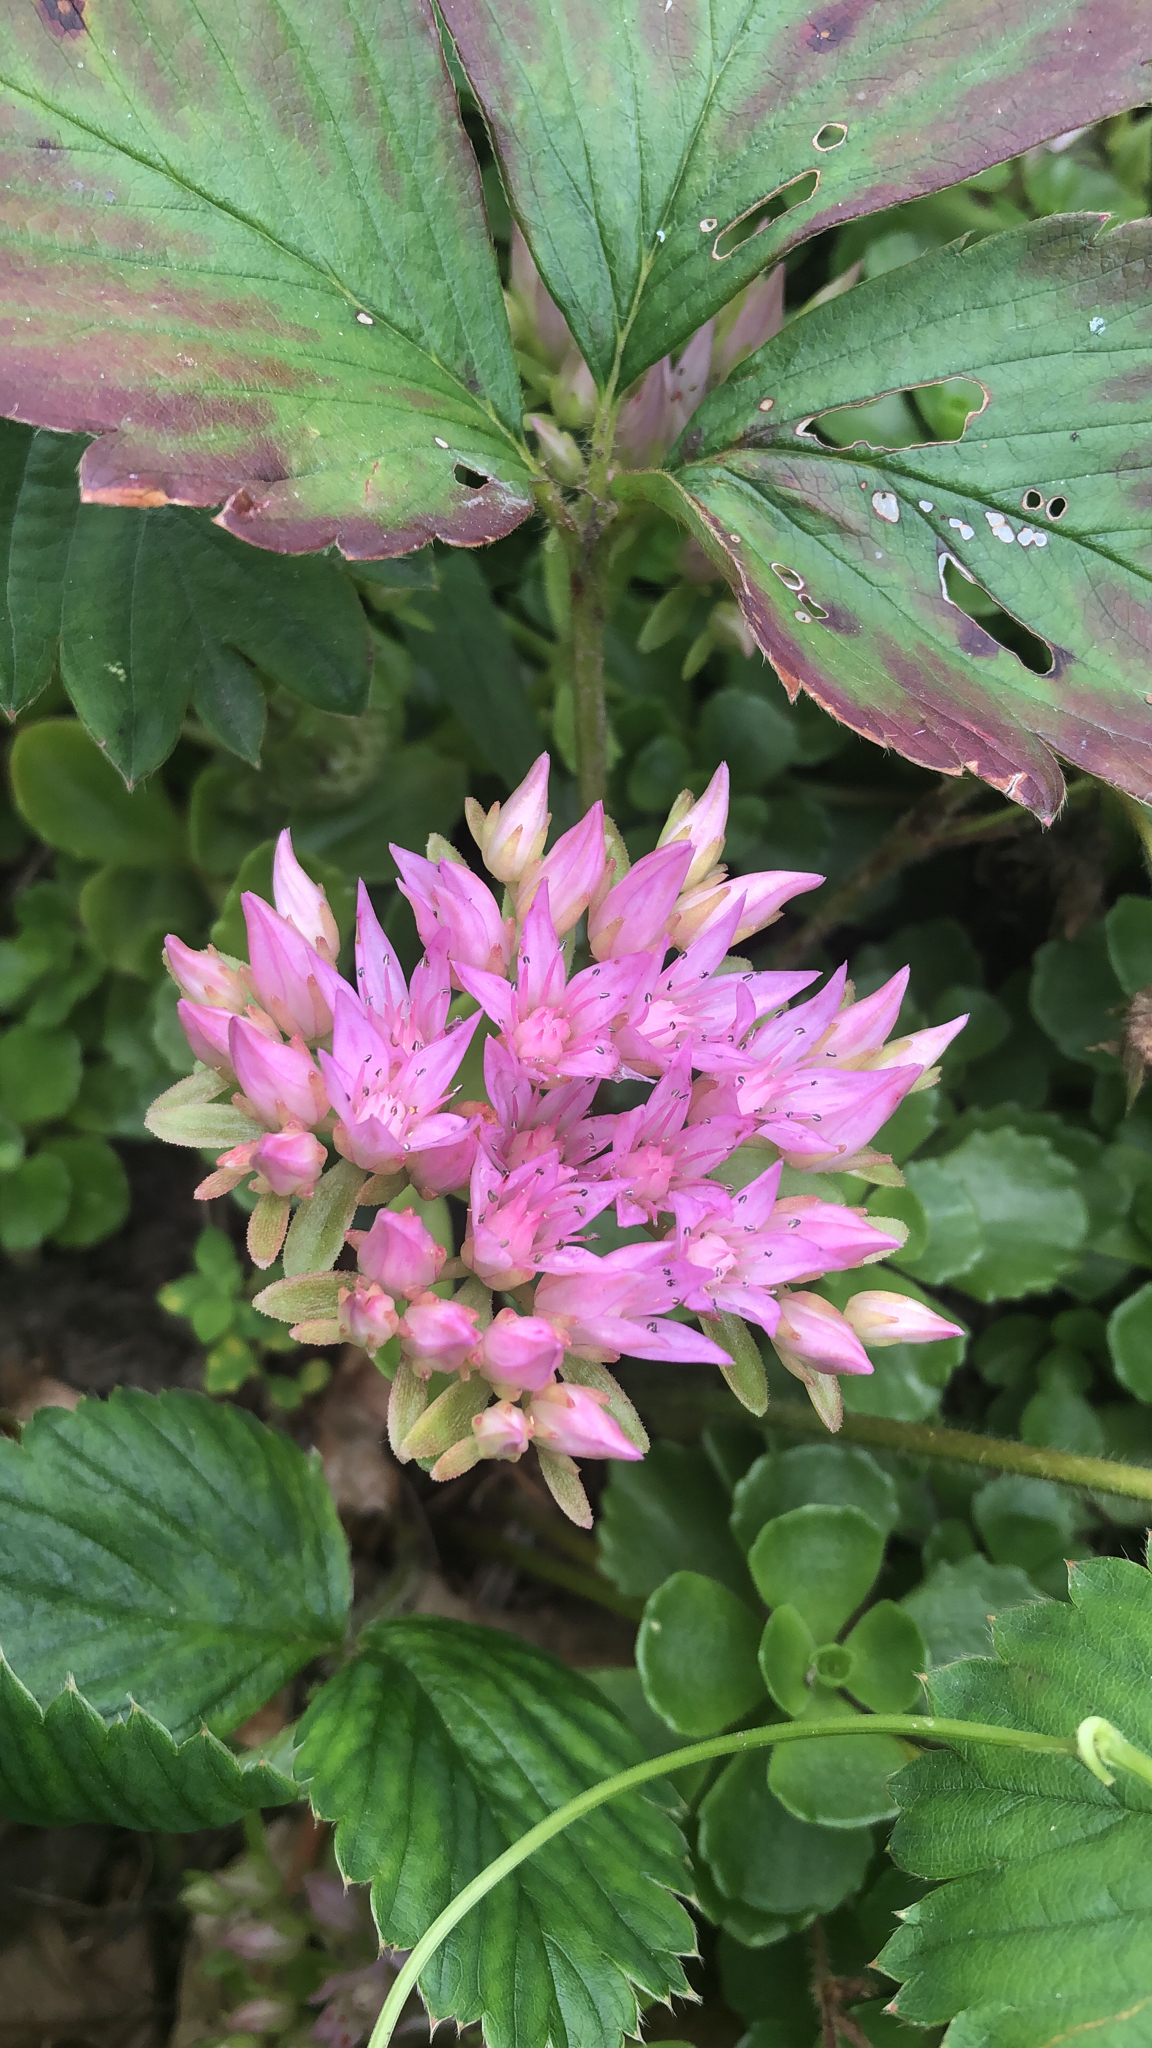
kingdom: Plantae
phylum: Tracheophyta
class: Magnoliopsida
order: Saxifragales
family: Crassulaceae
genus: Phedimus
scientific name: Phedimus spurius
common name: Caucasian stonecrop
